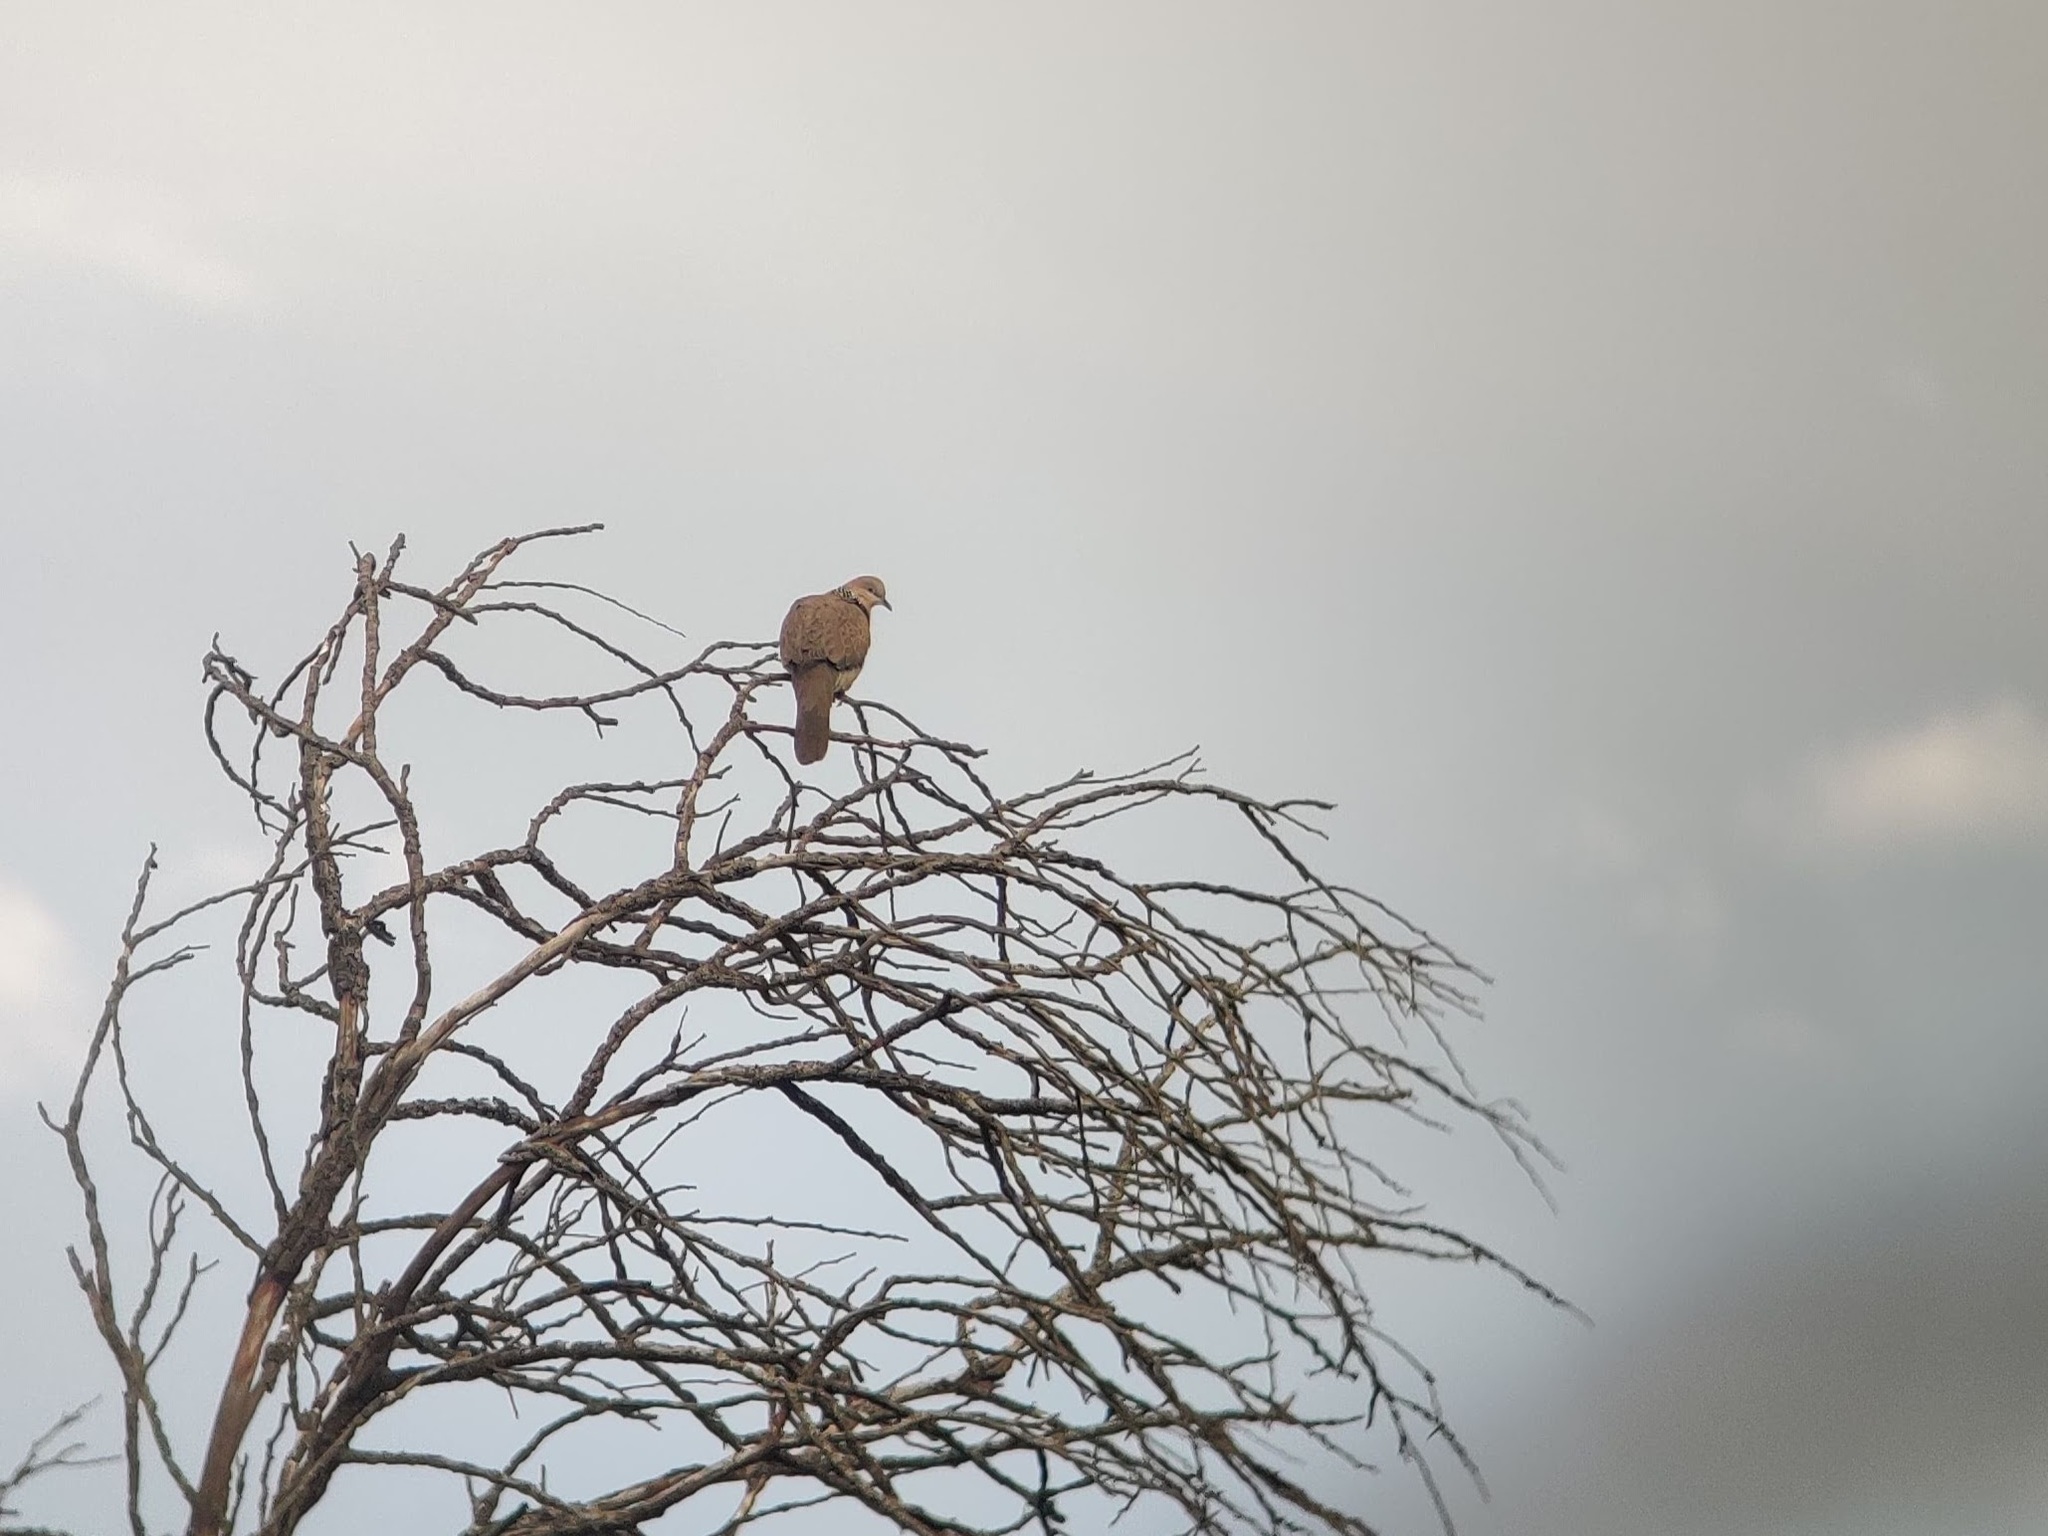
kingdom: Animalia
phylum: Chordata
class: Aves
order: Columbiformes
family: Columbidae
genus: Spilopelia
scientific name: Spilopelia chinensis
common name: Spotted dove
